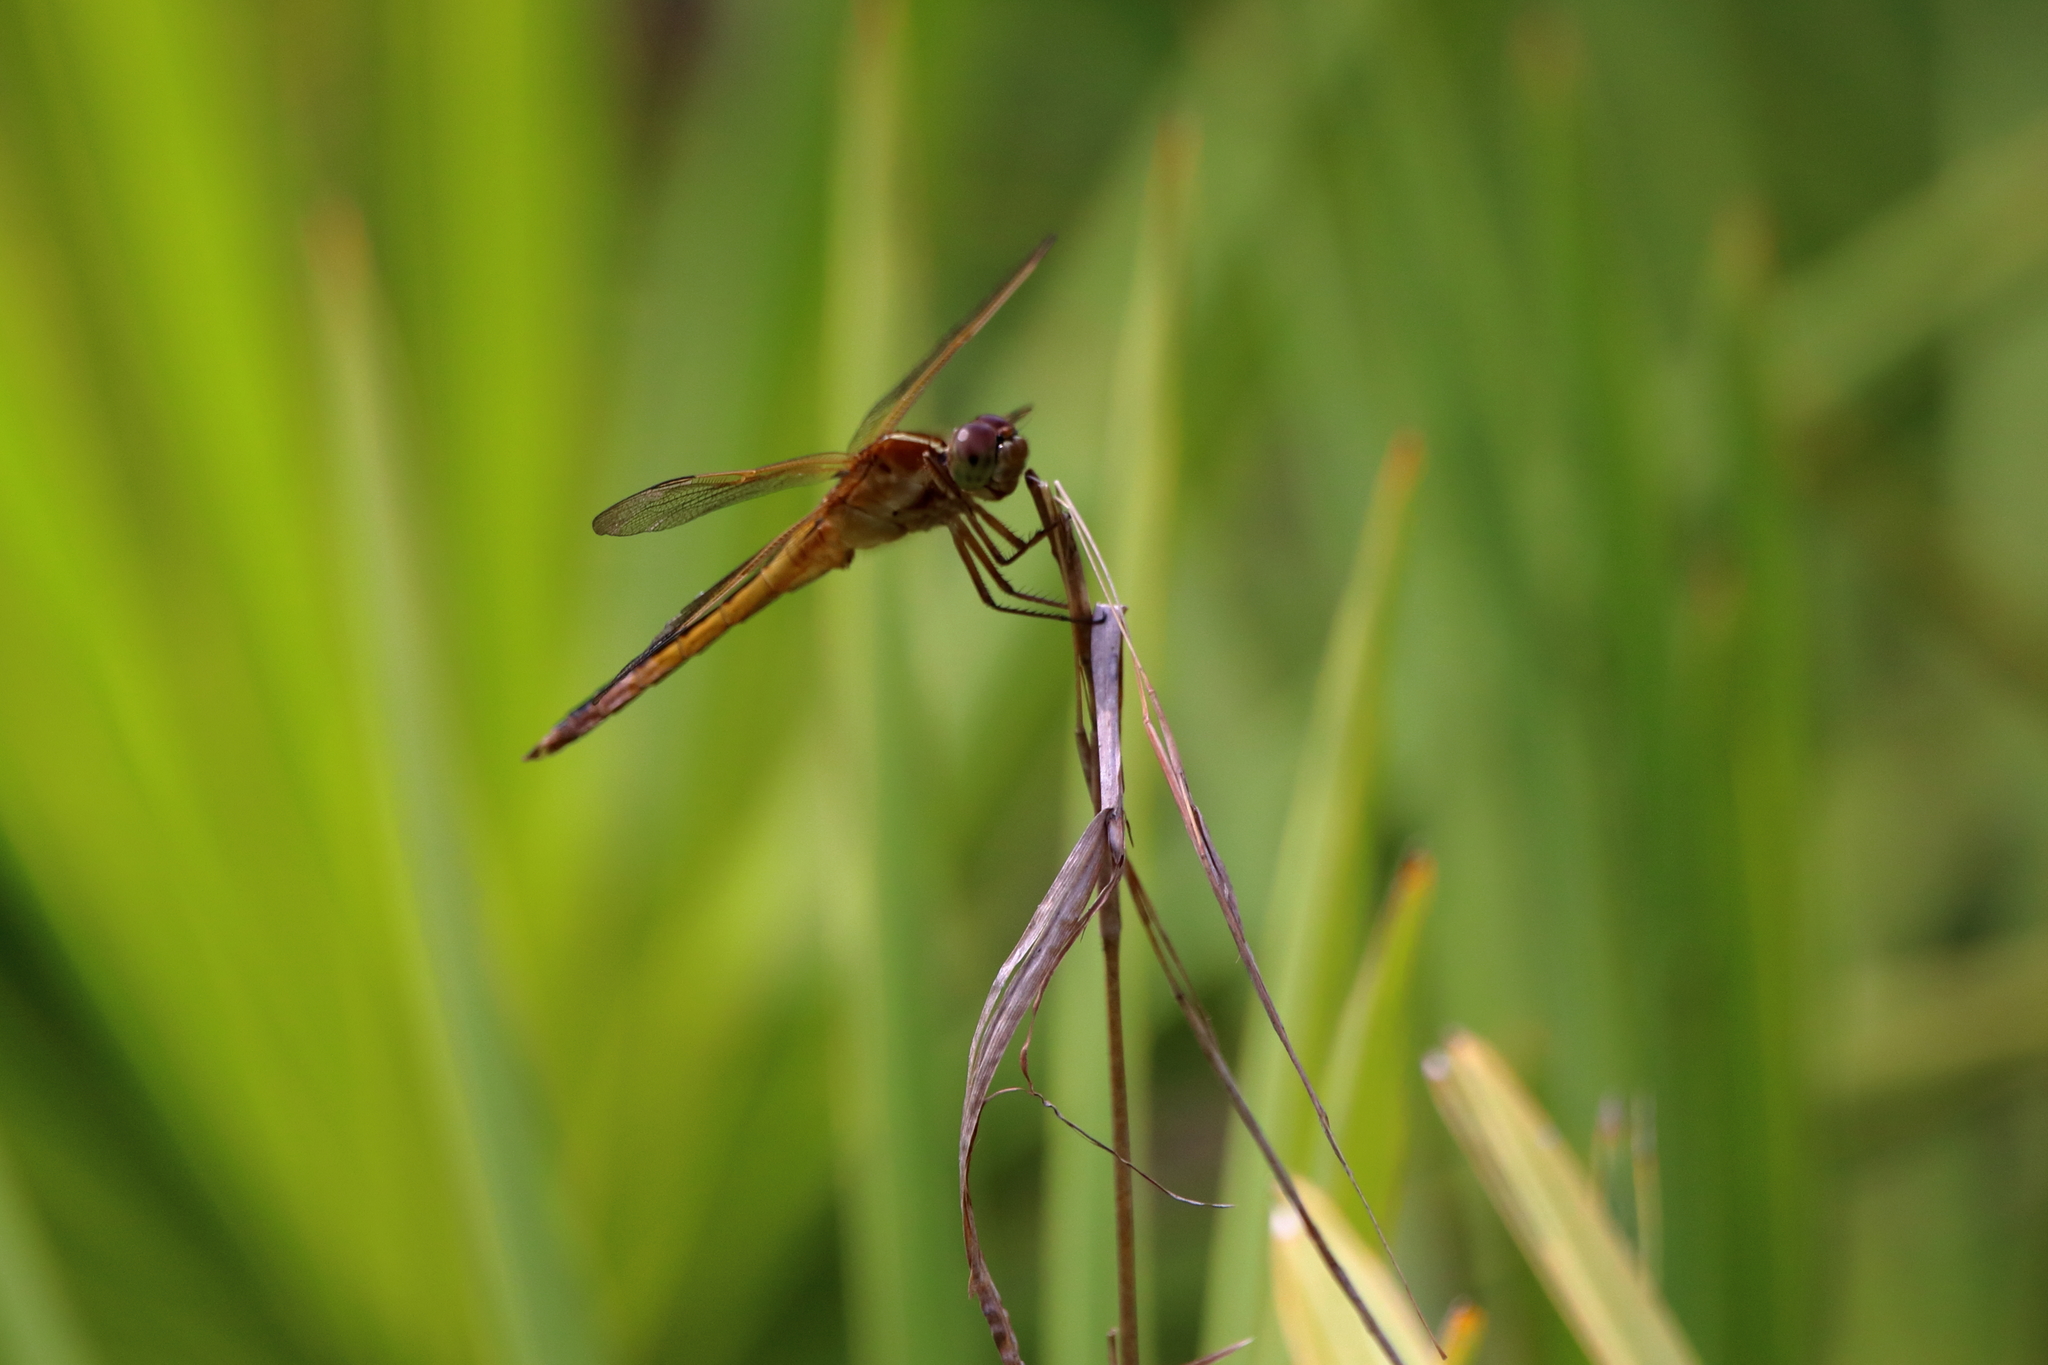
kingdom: Animalia
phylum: Arthropoda
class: Insecta
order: Odonata
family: Libellulidae
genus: Libellula
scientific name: Libellula needhami
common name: Needham's skimmer
